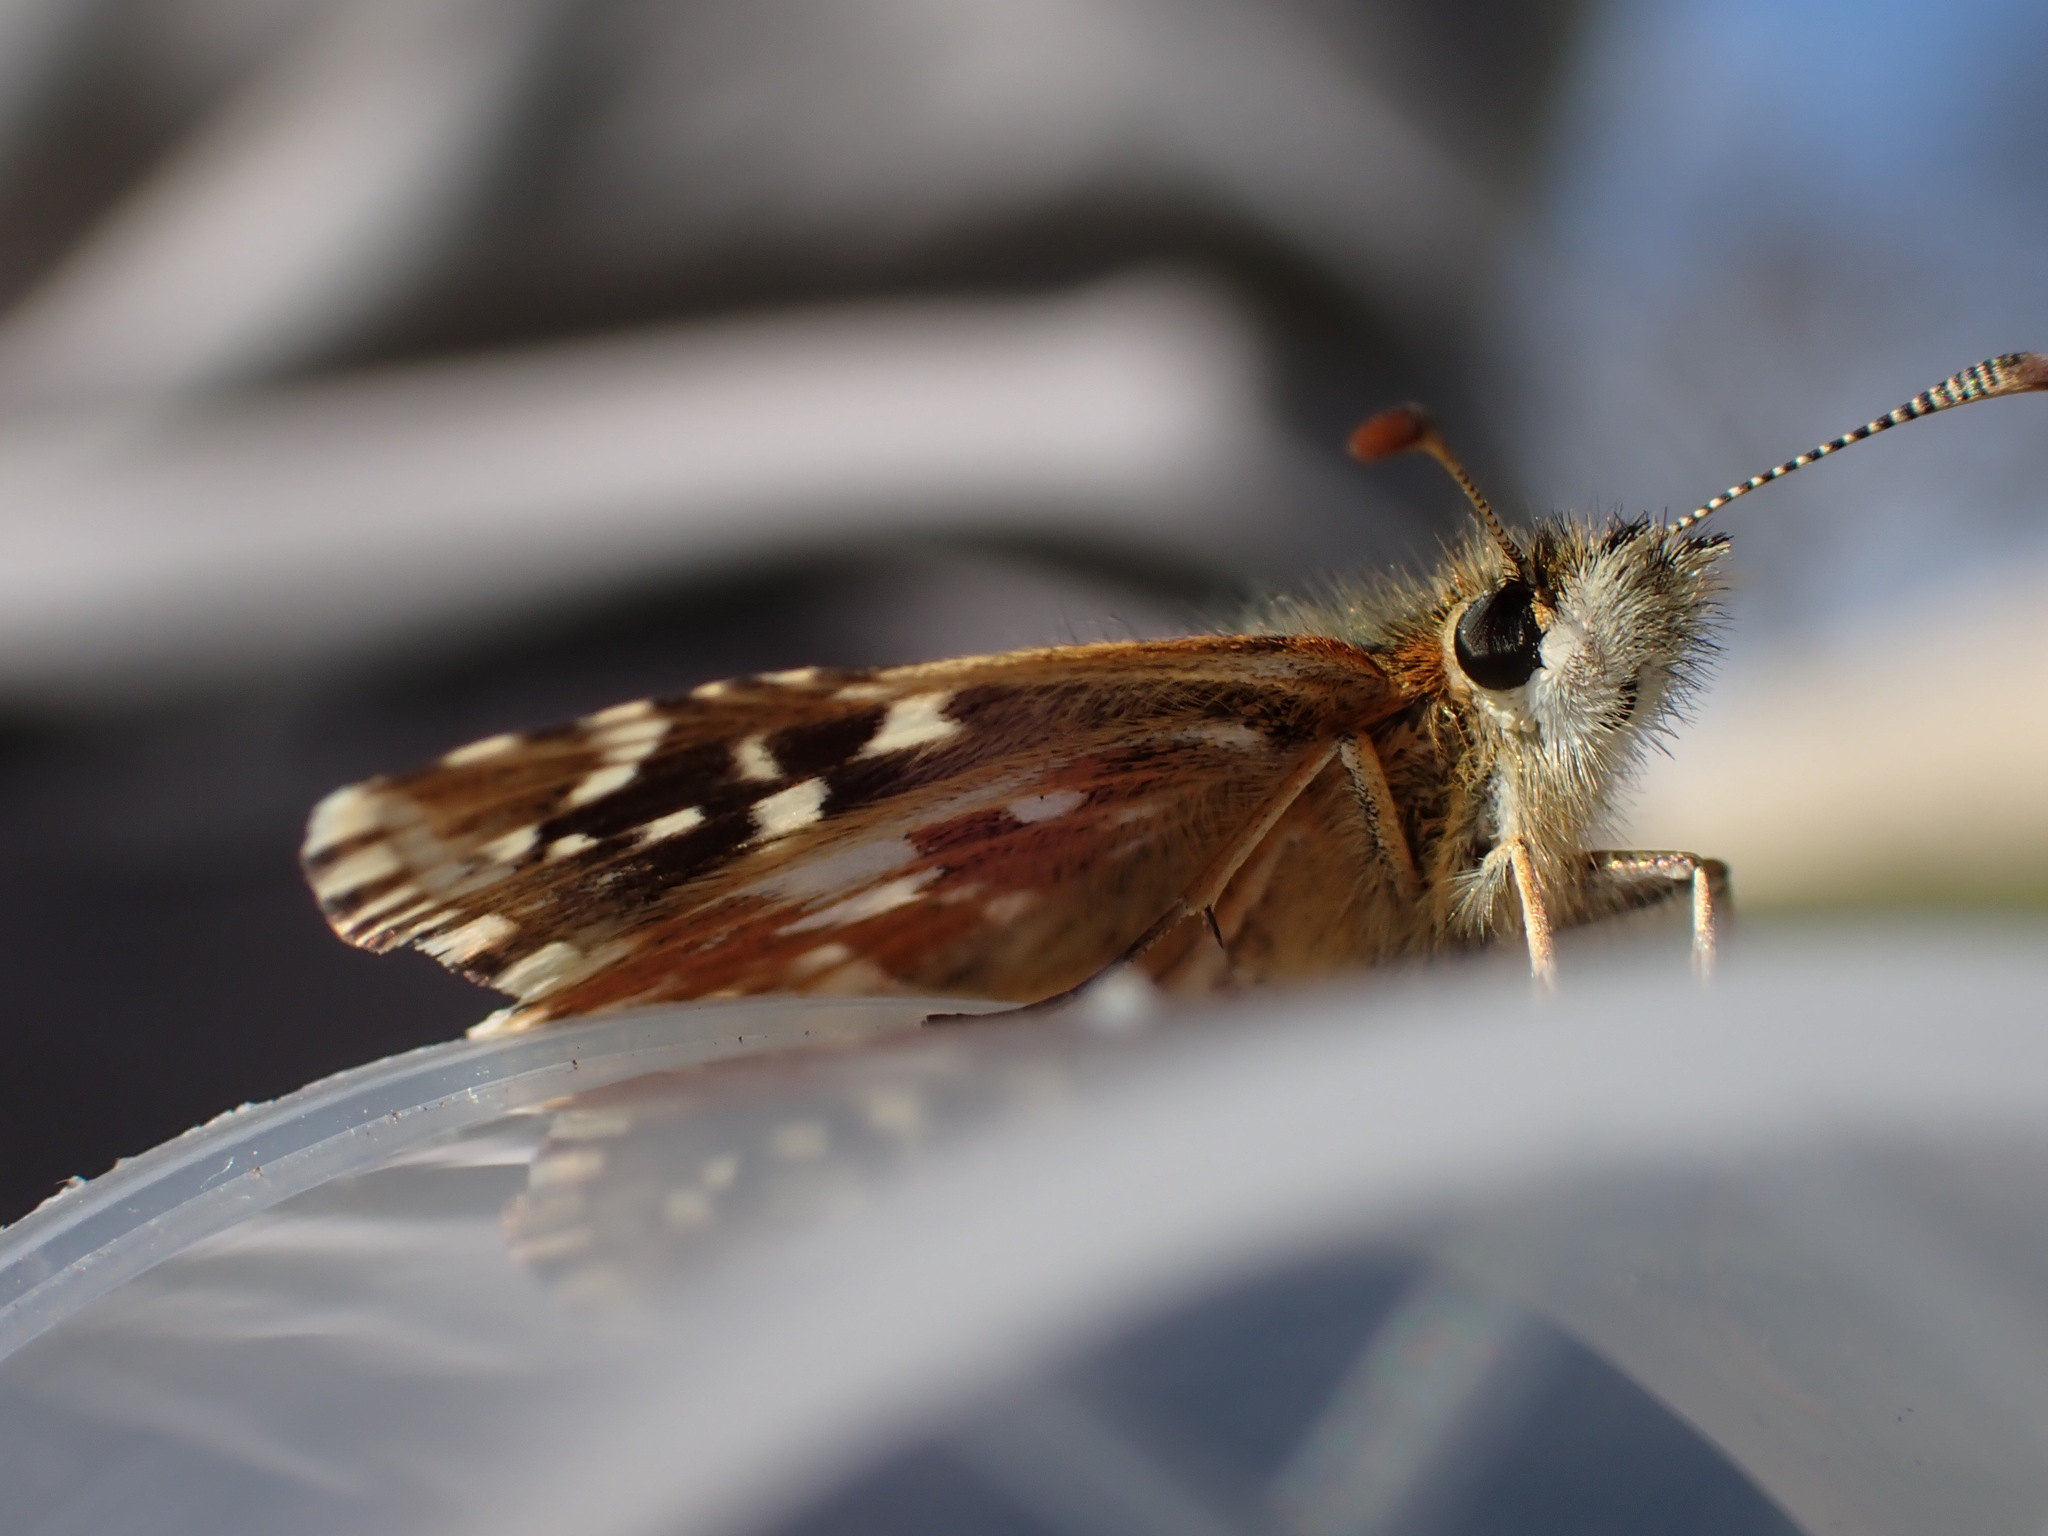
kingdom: Animalia
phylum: Arthropoda
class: Insecta
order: Lepidoptera
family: Hesperiidae
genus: Pyrgus
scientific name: Pyrgus malvoides
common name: Southern grizzled skipper
